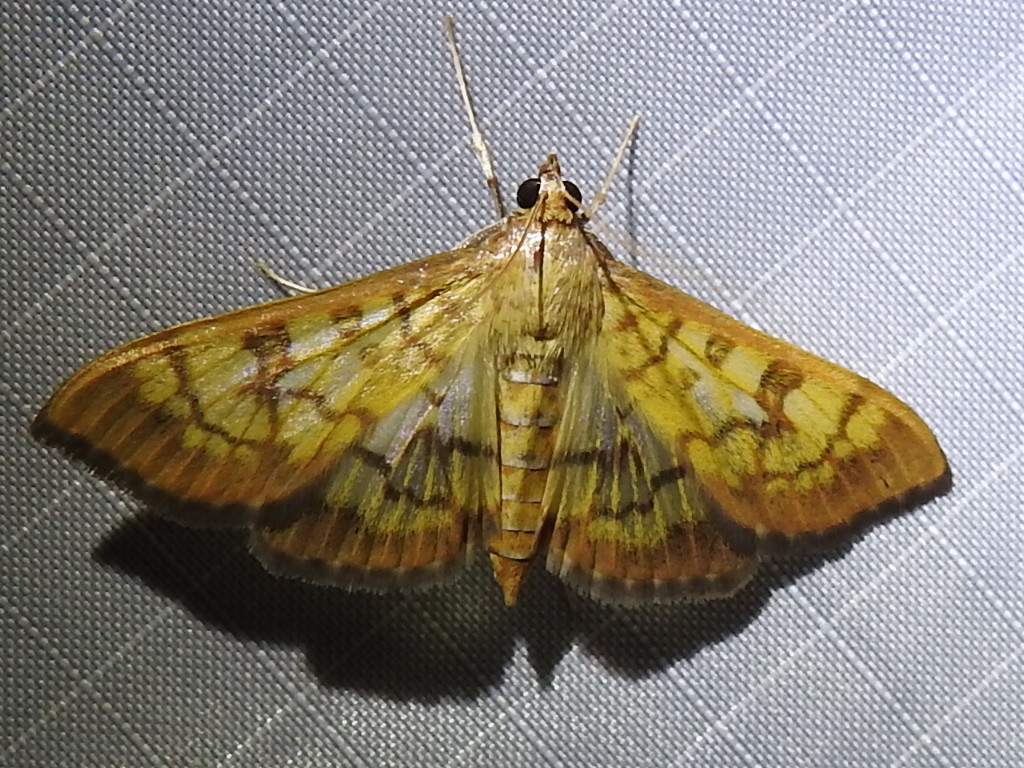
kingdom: Animalia
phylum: Arthropoda
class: Insecta
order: Lepidoptera
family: Crambidae
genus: Mimorista
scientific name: Mimorista subcostalis
